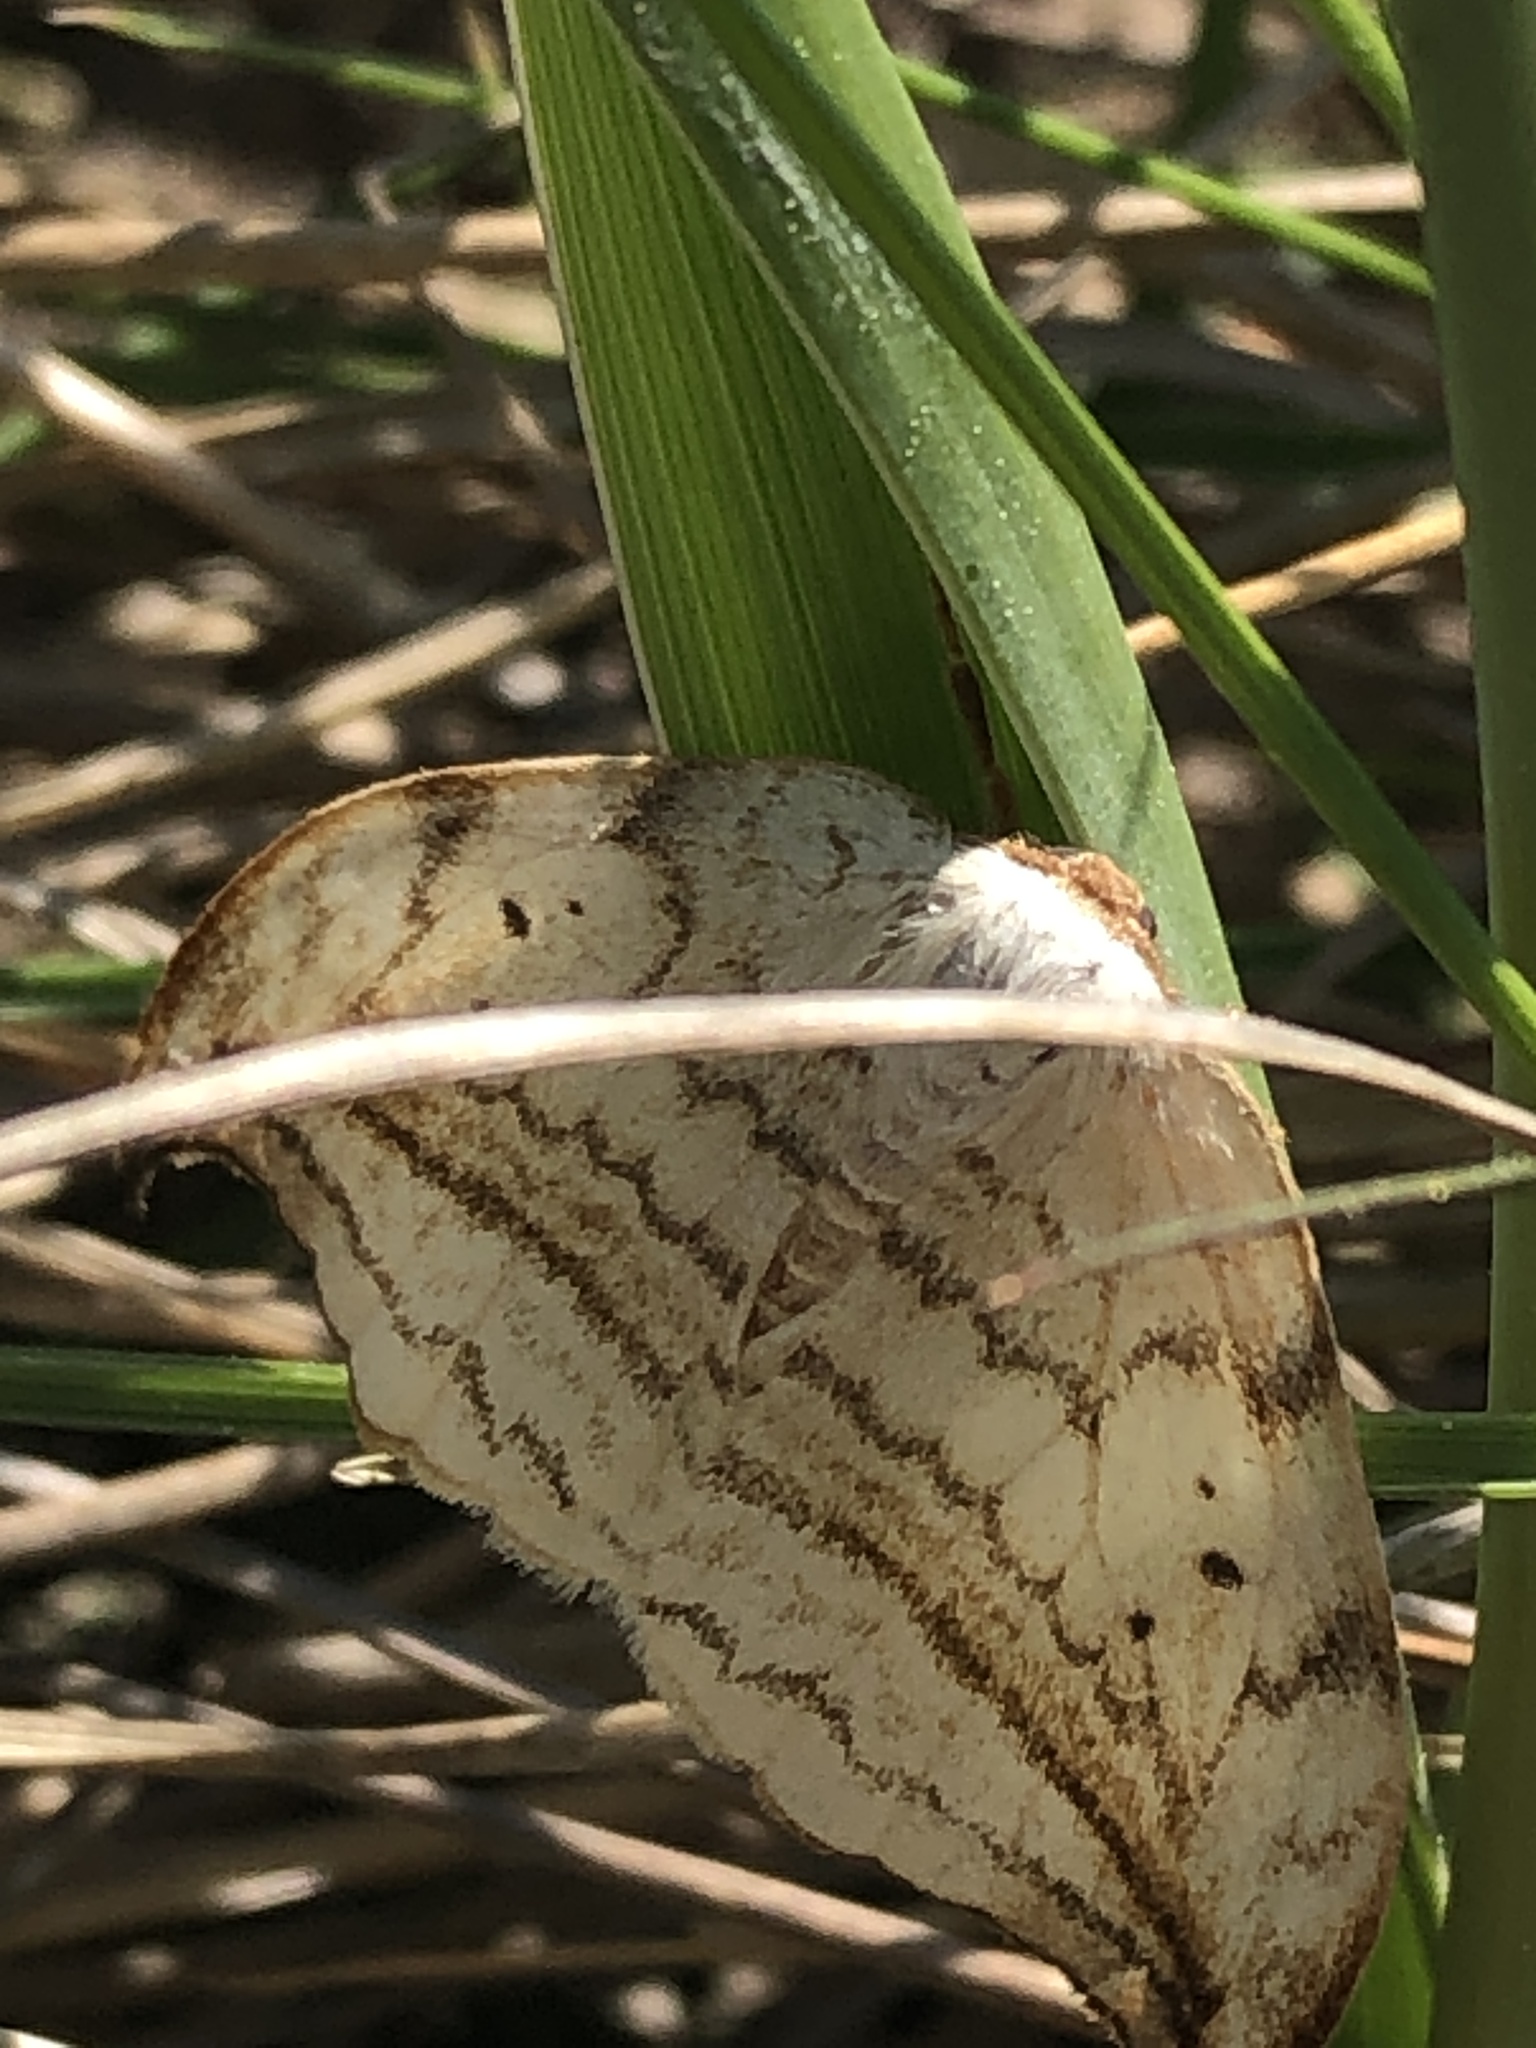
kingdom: Animalia
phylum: Arthropoda
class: Insecta
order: Lepidoptera
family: Drepanidae
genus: Drepana
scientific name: Drepana arcuata
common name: Arched hooktip moth
